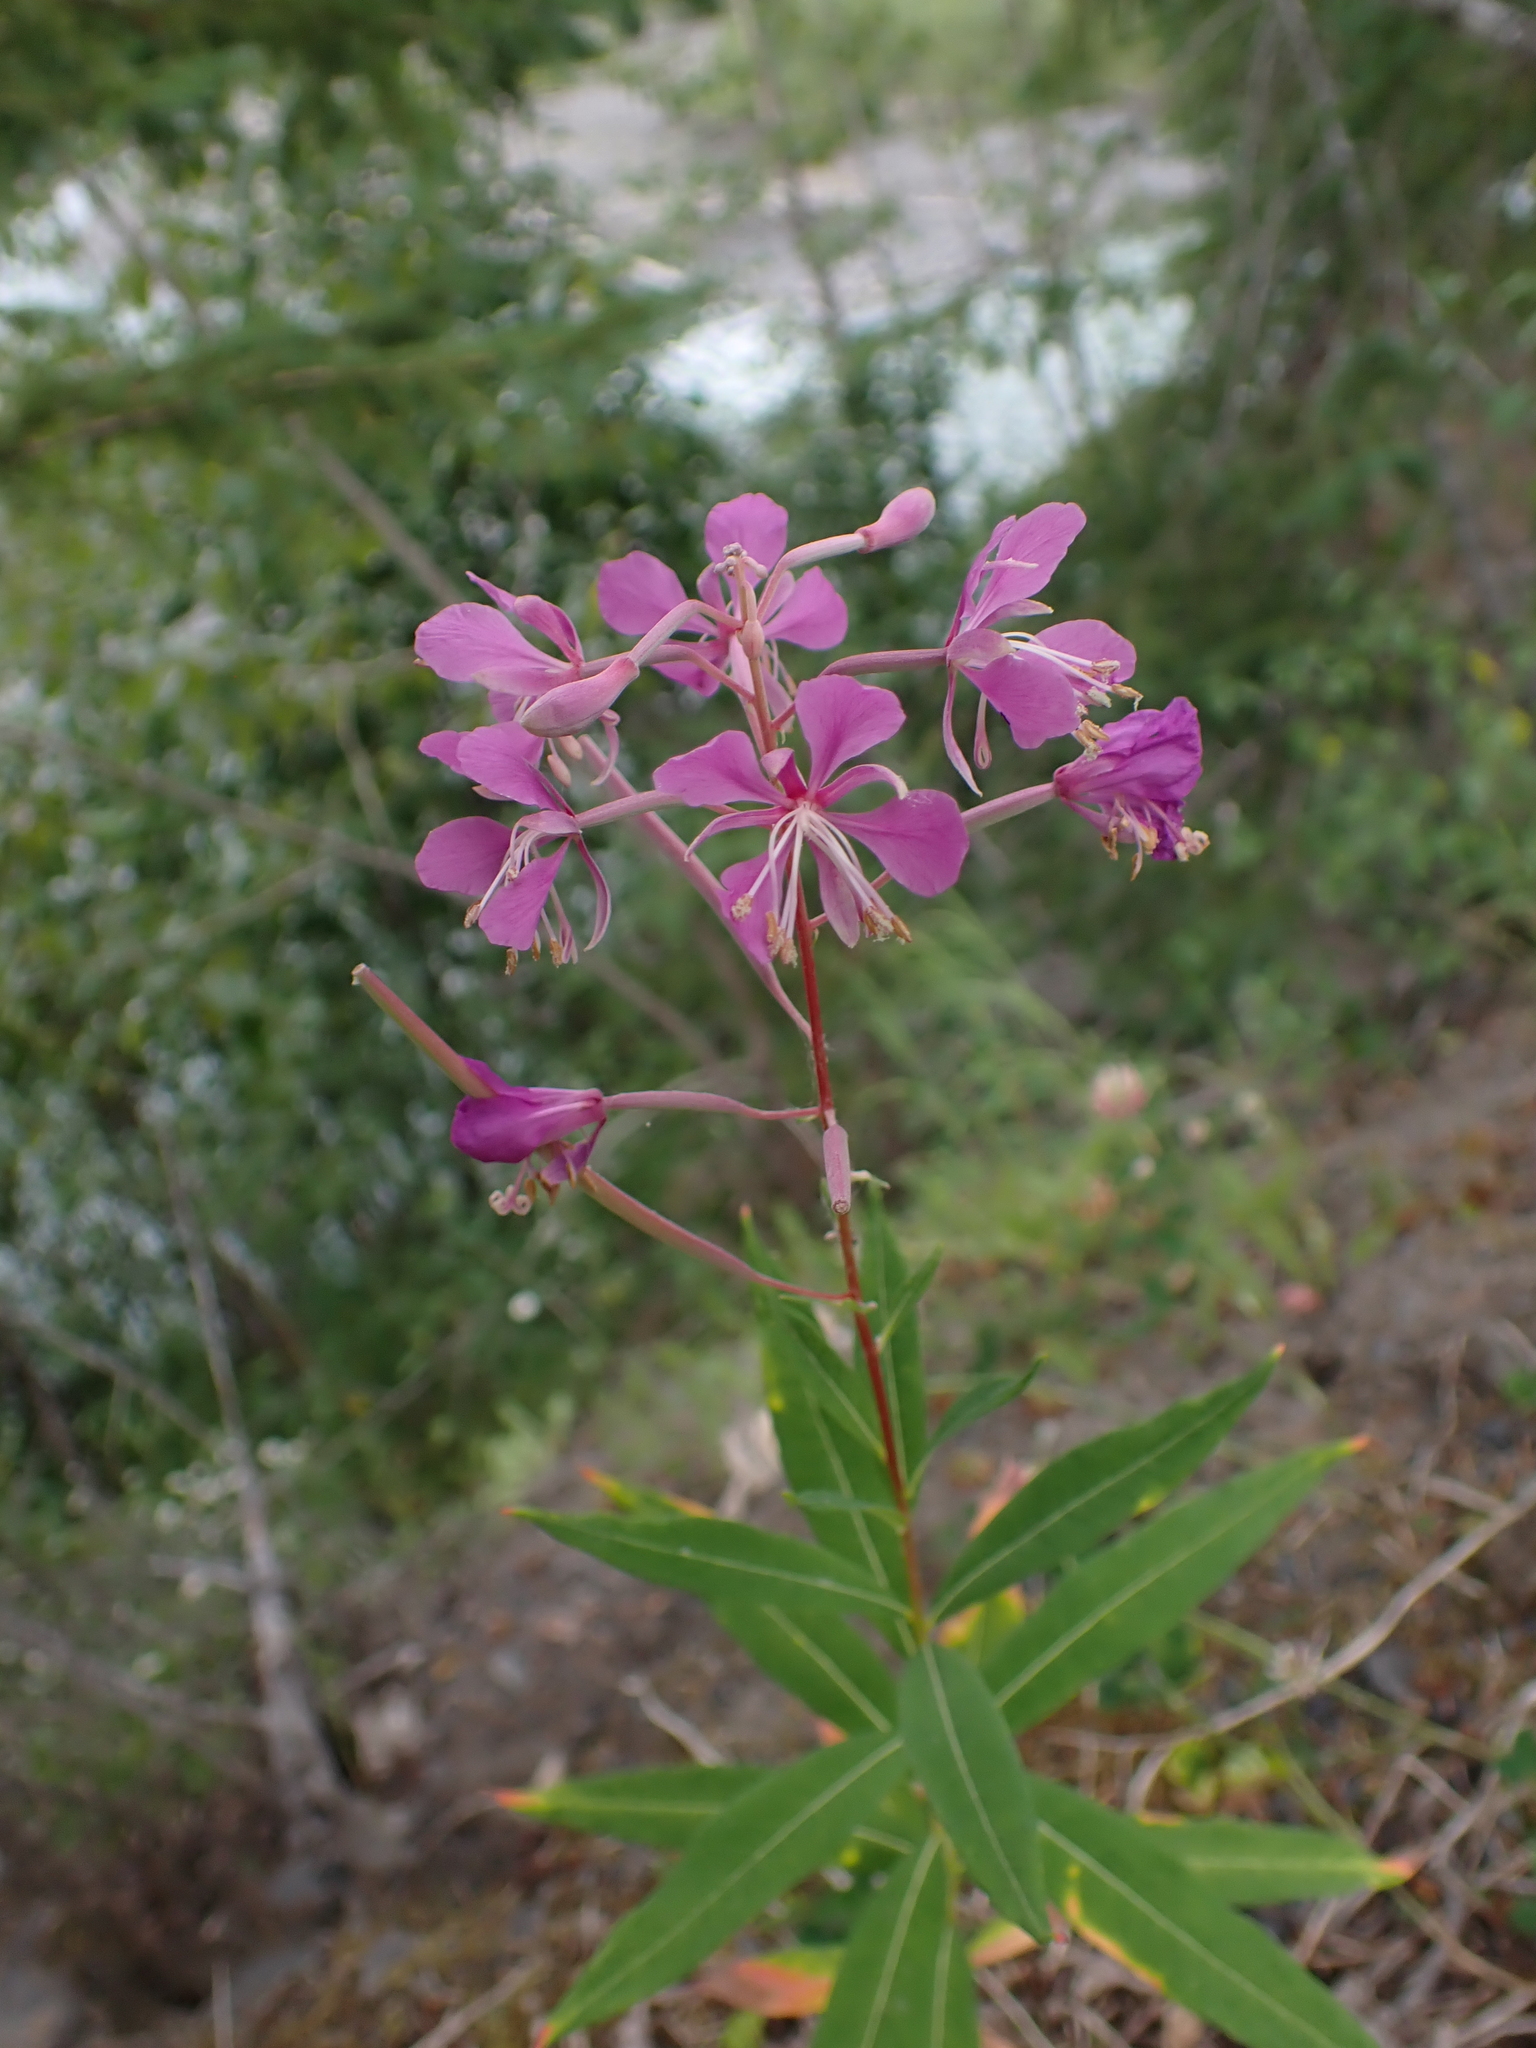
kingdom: Plantae
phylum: Tracheophyta
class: Magnoliopsida
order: Myrtales
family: Onagraceae
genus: Chamaenerion
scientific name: Chamaenerion angustifolium
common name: Fireweed
